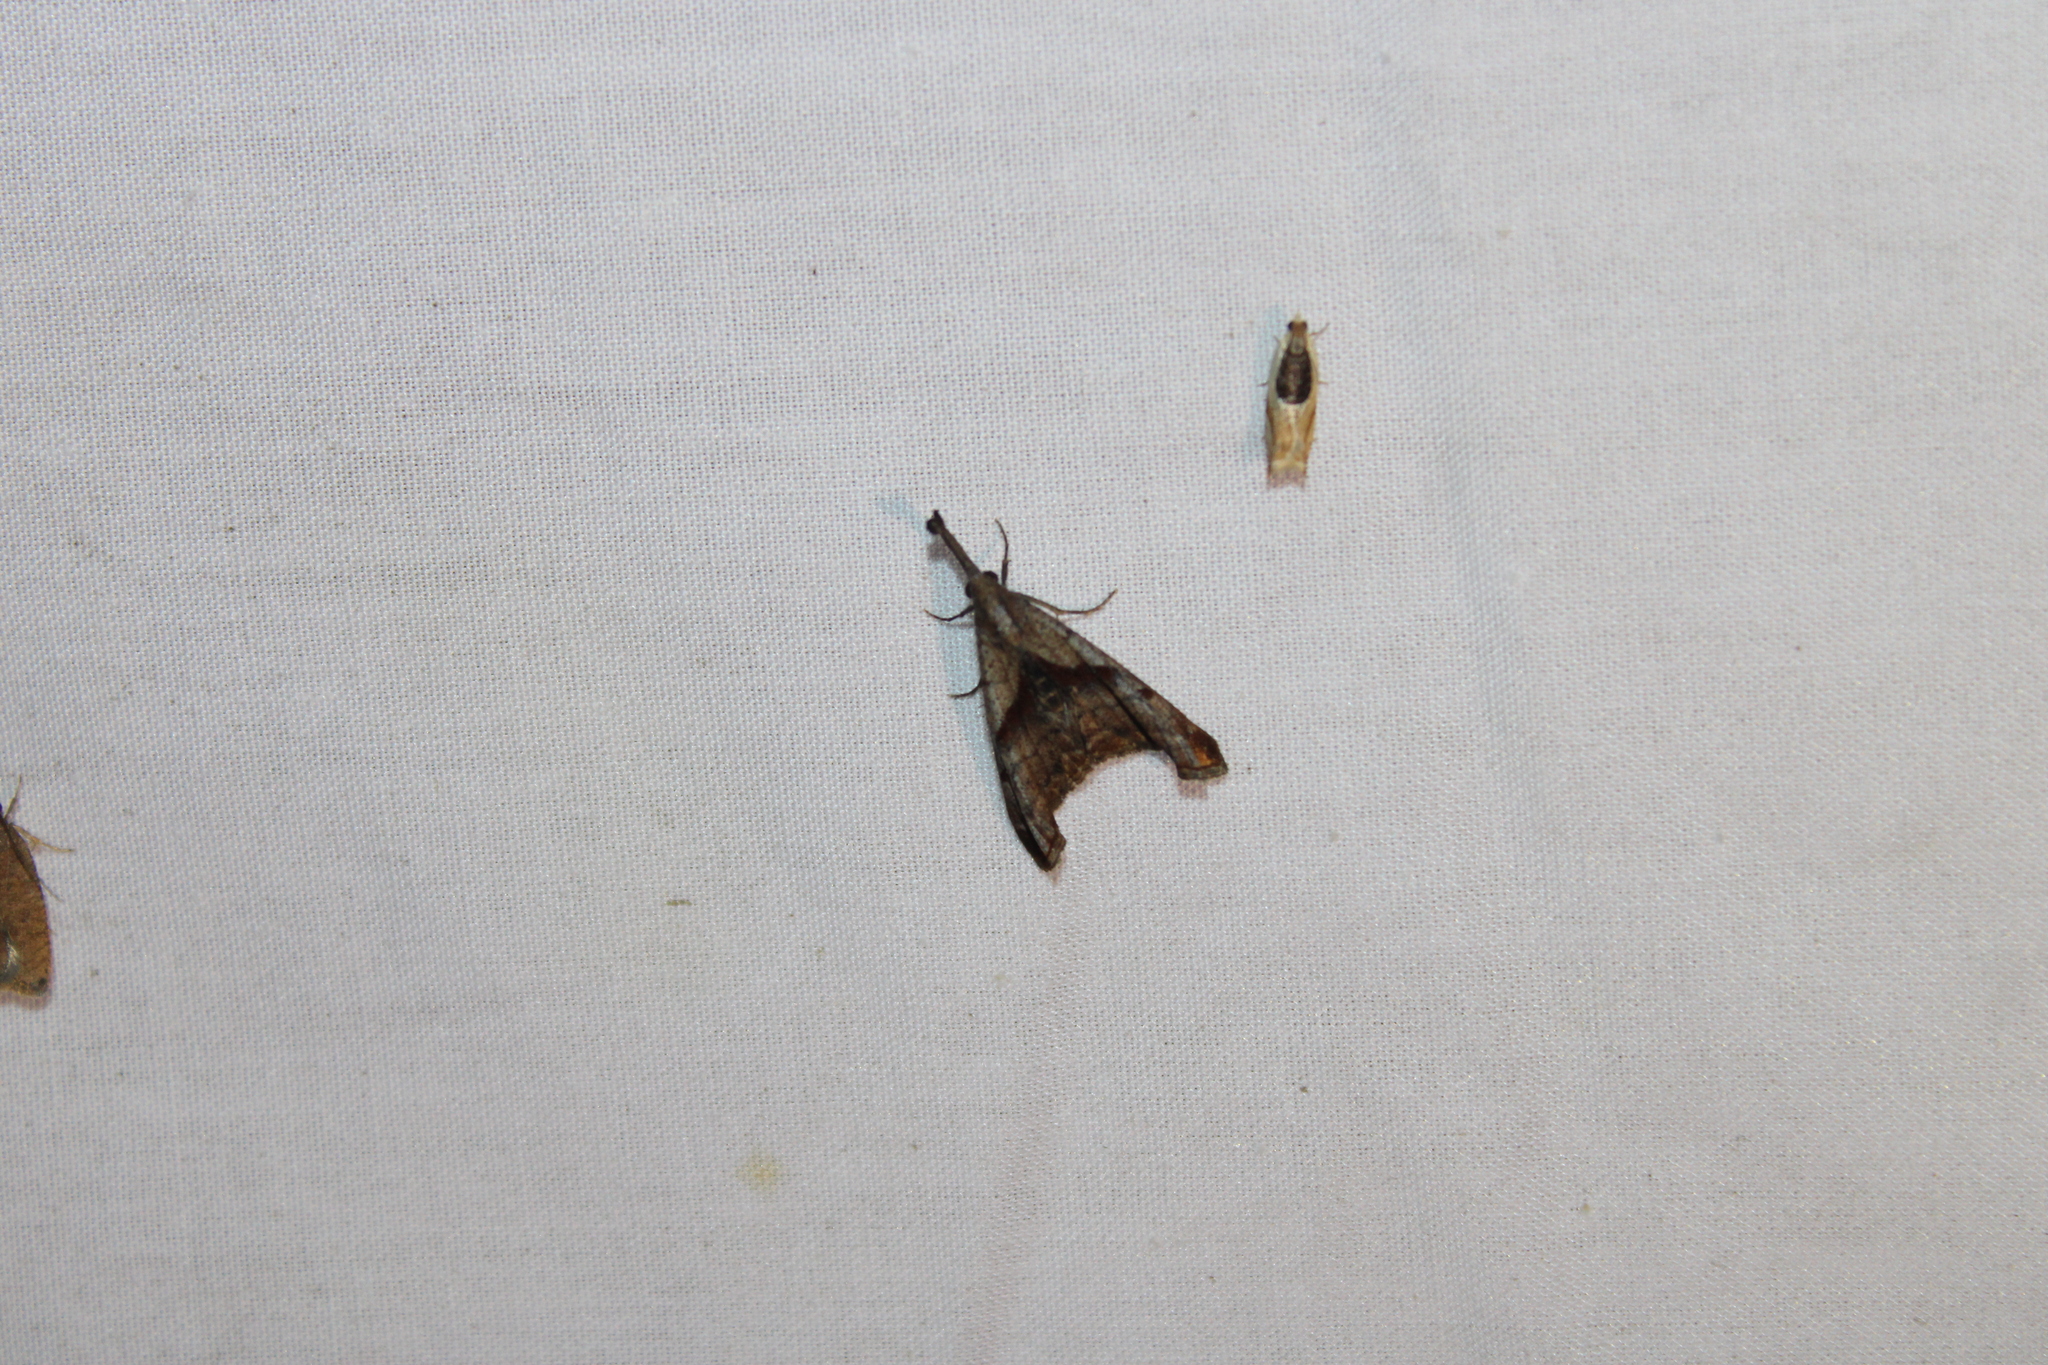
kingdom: Animalia
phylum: Arthropoda
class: Insecta
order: Lepidoptera
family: Erebidae
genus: Palthis
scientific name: Palthis angulalis
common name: Dark-spotted palthis moth
